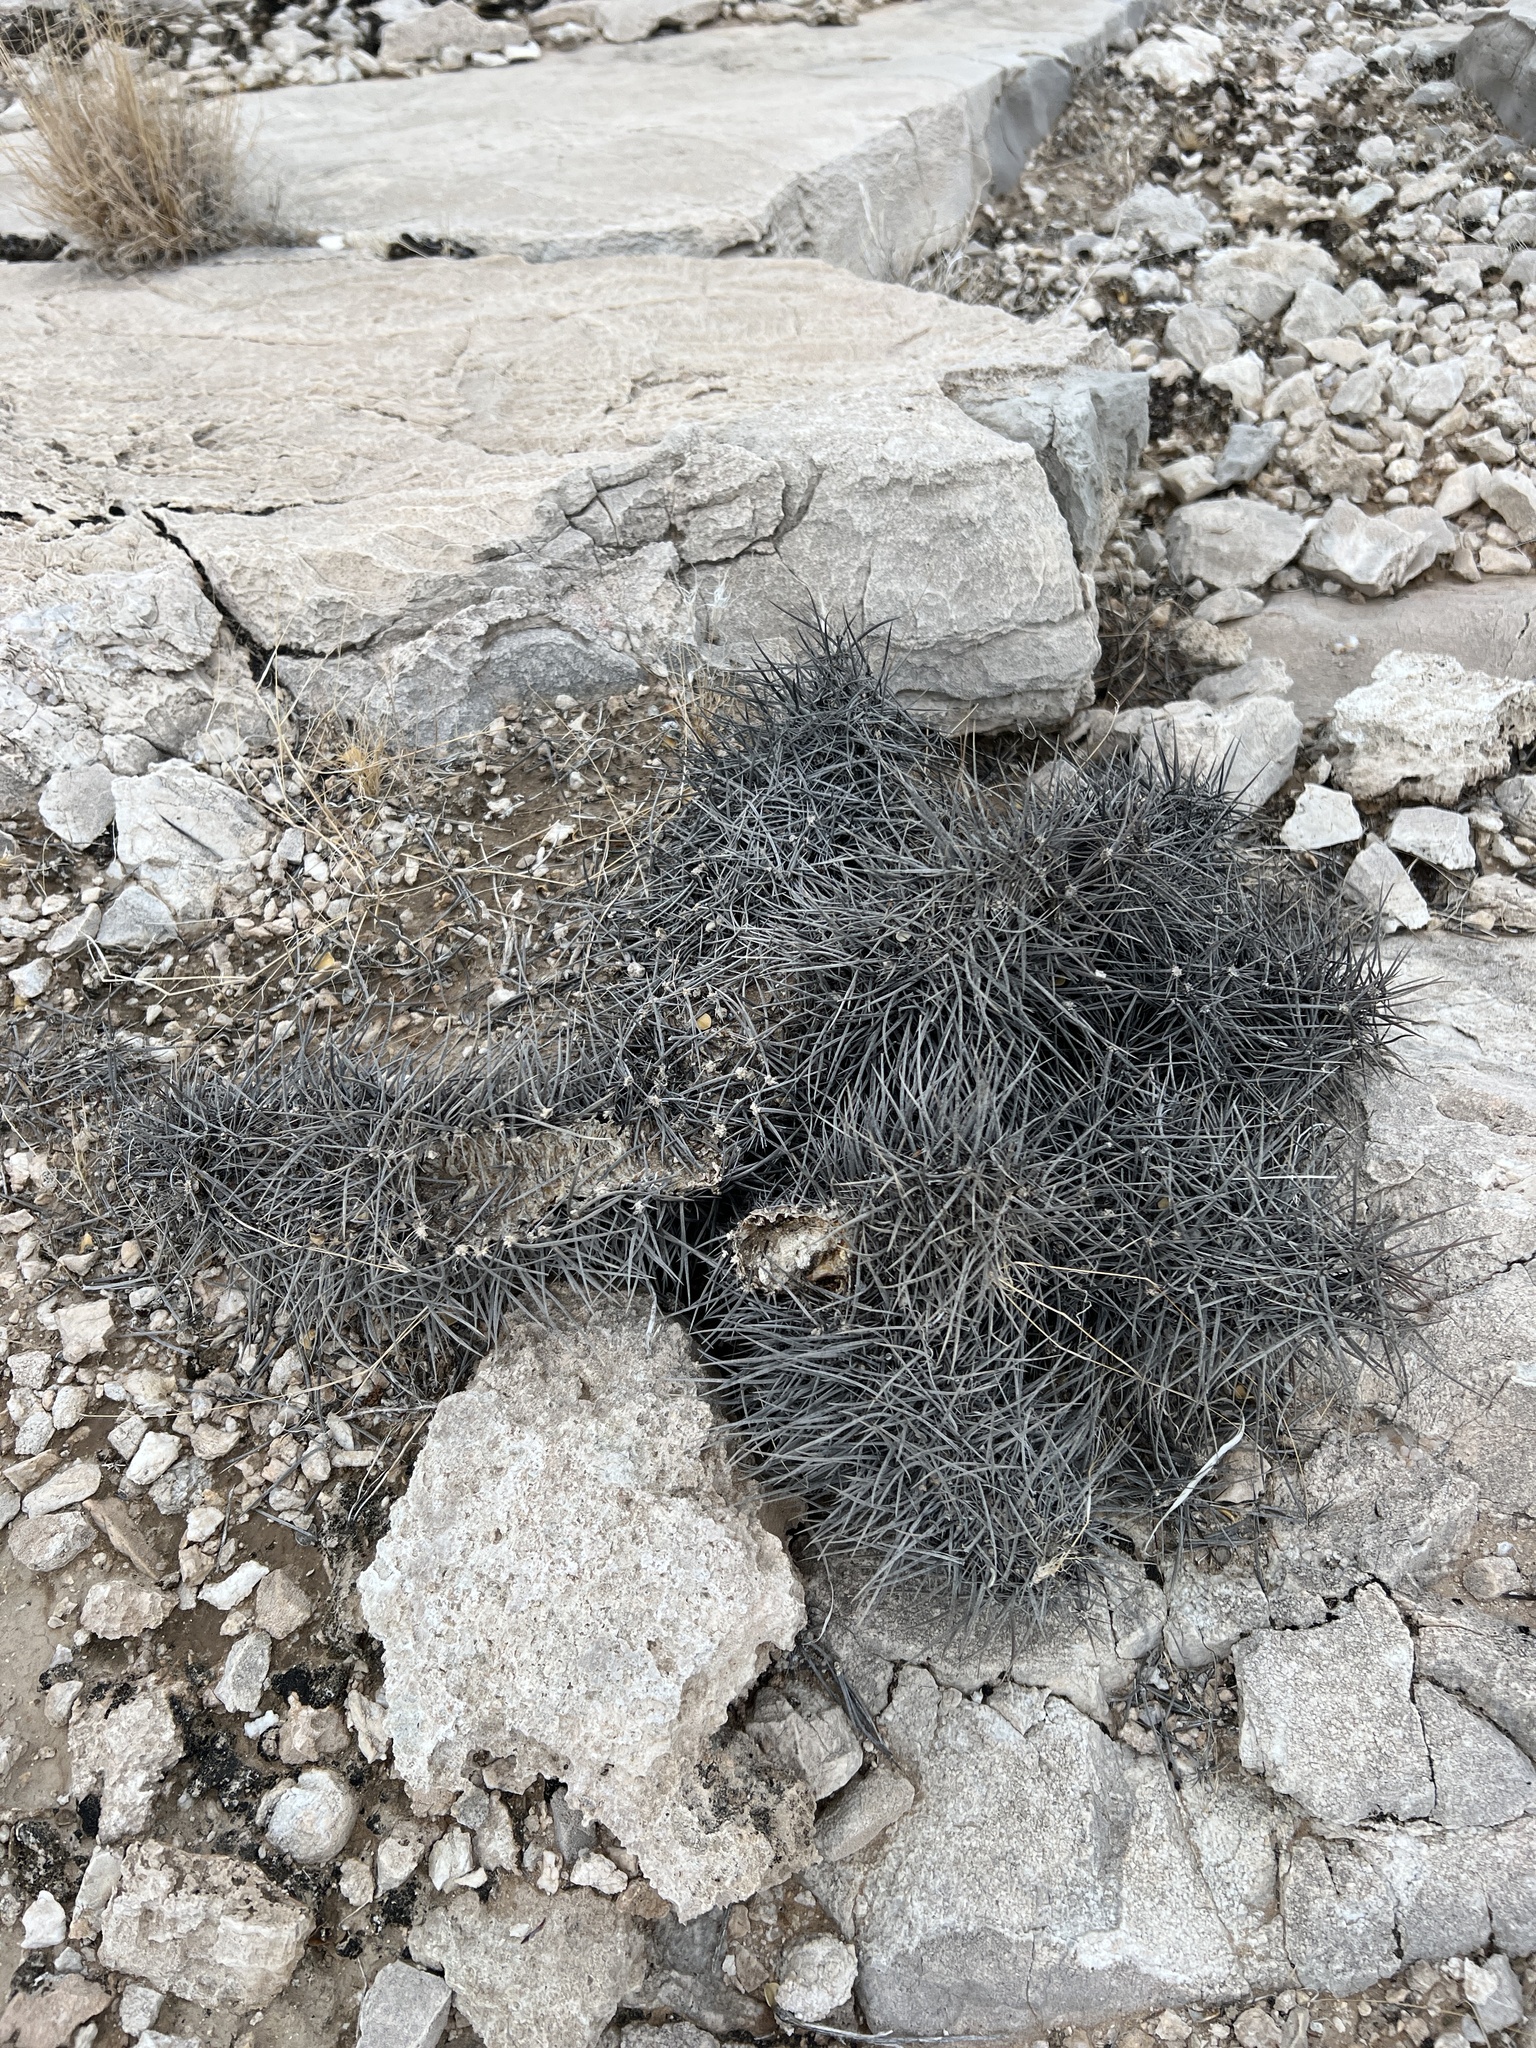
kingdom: Plantae
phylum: Tracheophyta
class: Magnoliopsida
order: Caryophyllales
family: Cactaceae
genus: Echinocereus
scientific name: Echinocereus engelmannii
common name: Engelmann's hedgehog cactus
